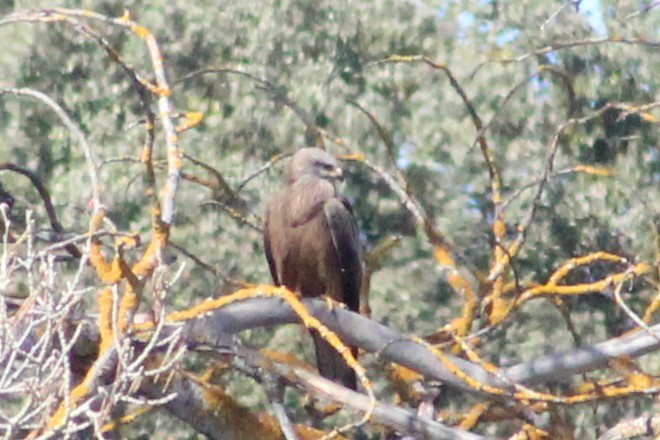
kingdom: Animalia
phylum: Chordata
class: Aves
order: Accipitriformes
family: Accipitridae
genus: Milvus
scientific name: Milvus milvus
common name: Red kite
